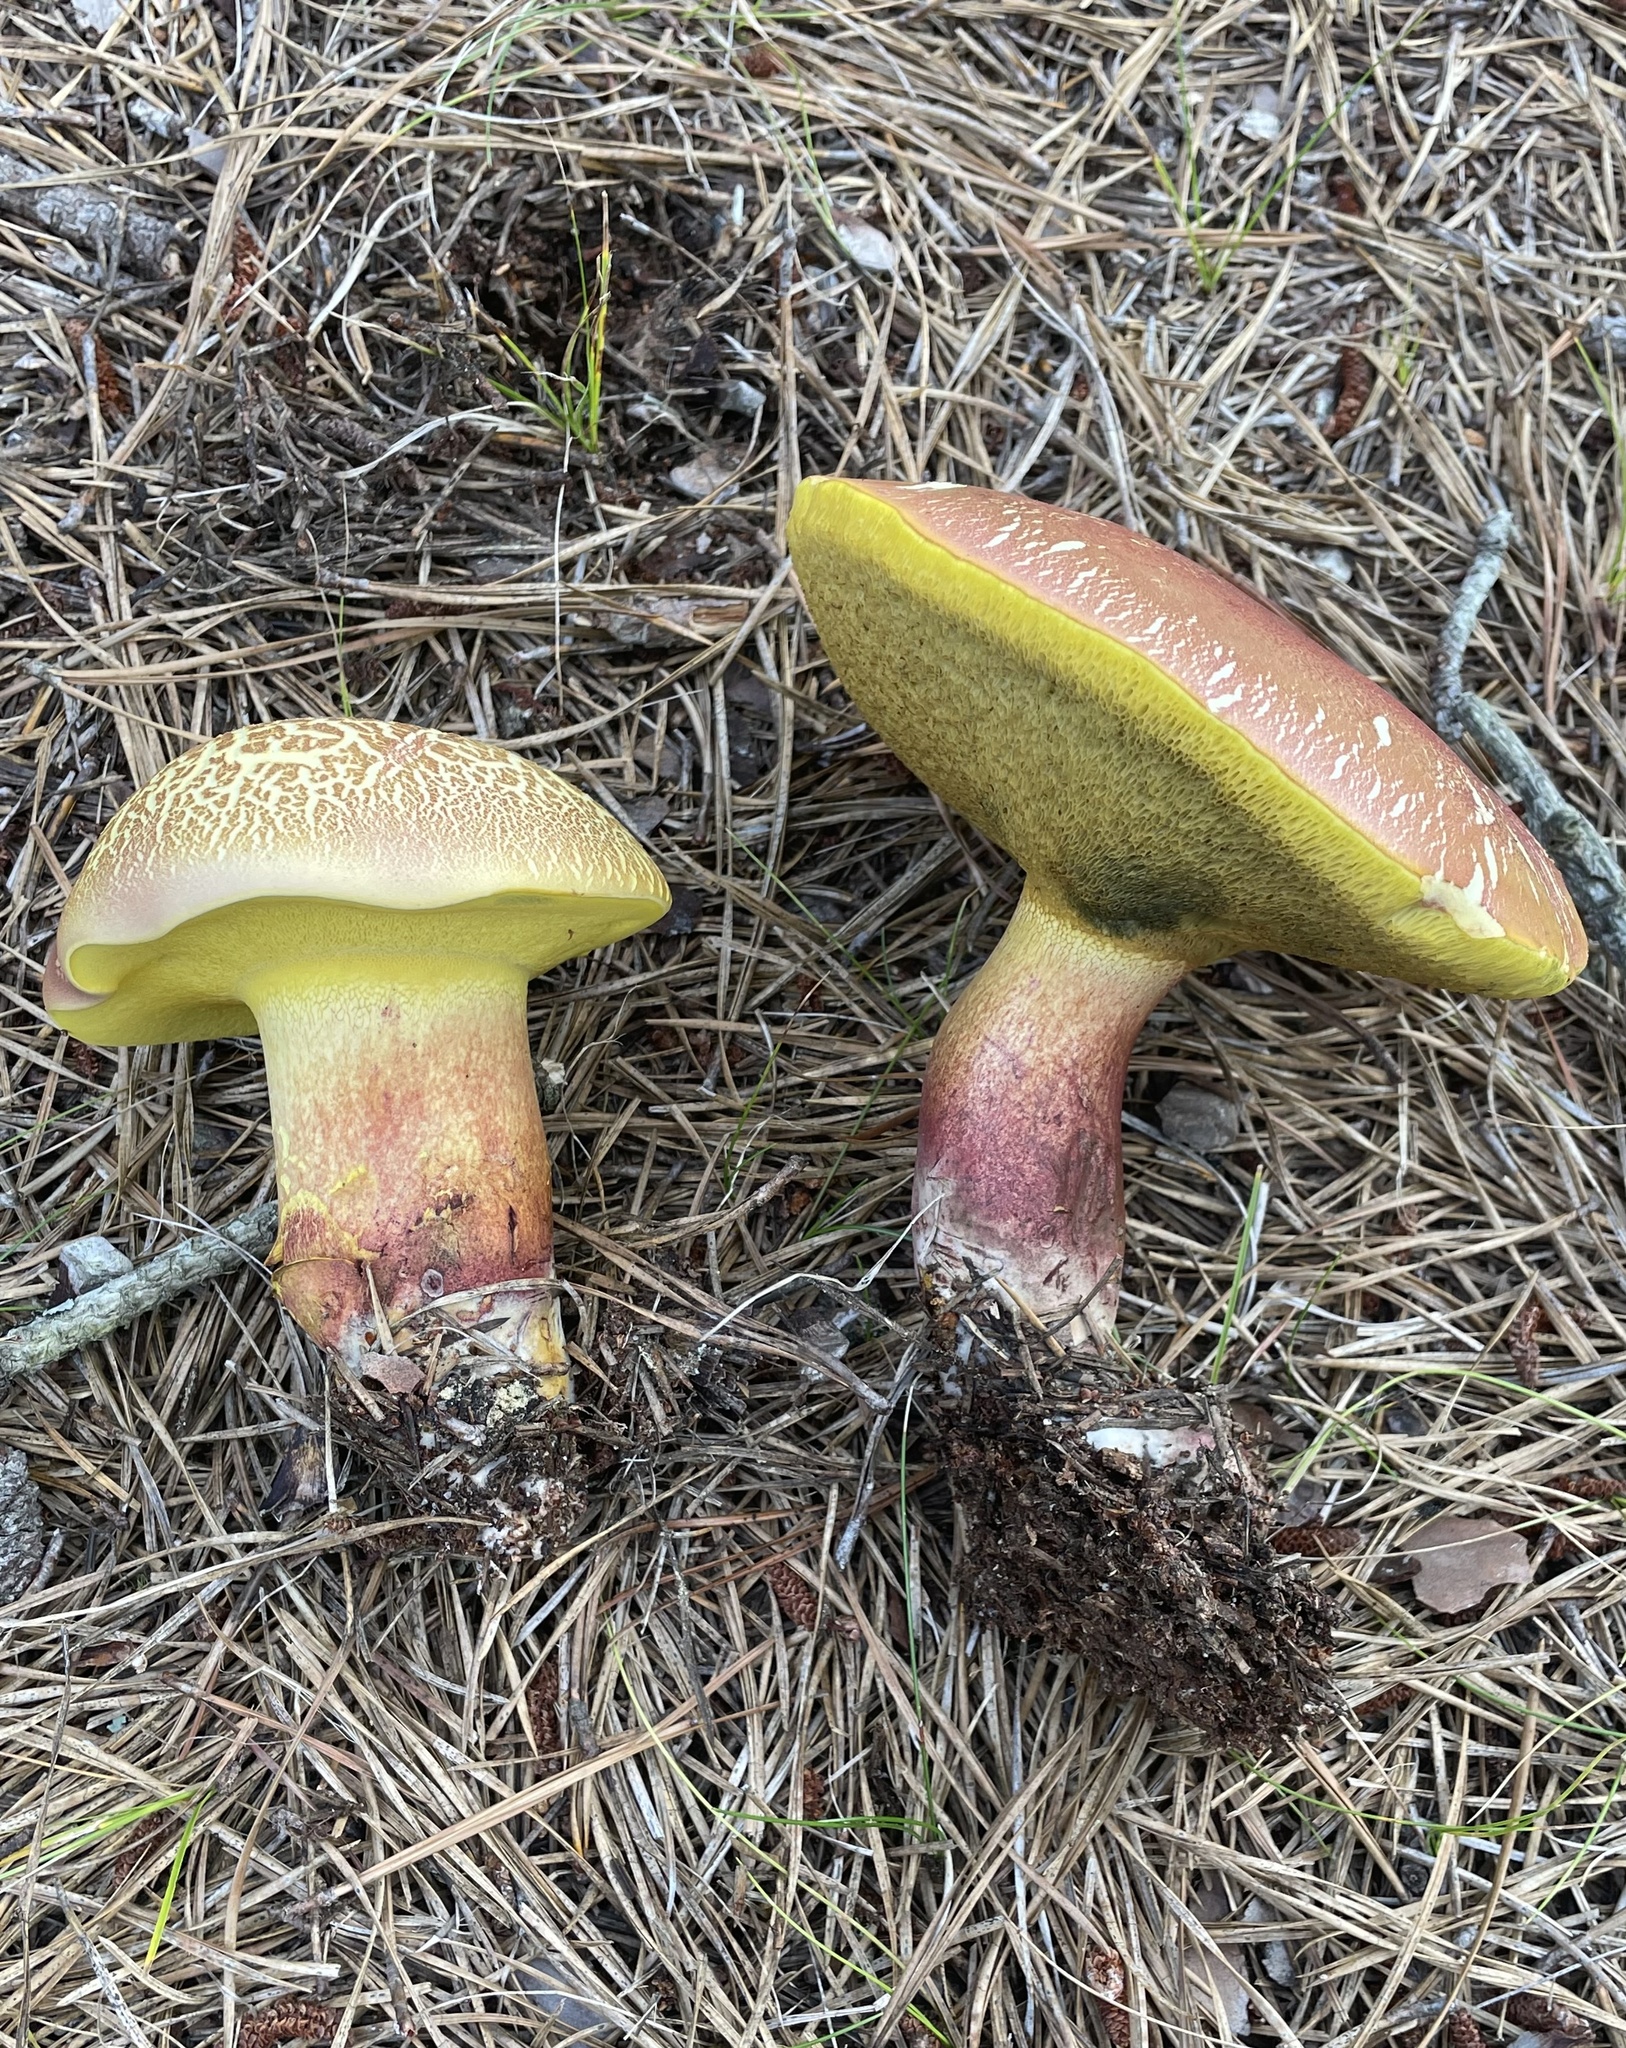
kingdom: Fungi
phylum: Basidiomycota
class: Agaricomycetes
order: Boletales
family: Boletaceae
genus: Baorangia
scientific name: Baorangia bicolor
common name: Two-colored bolete
